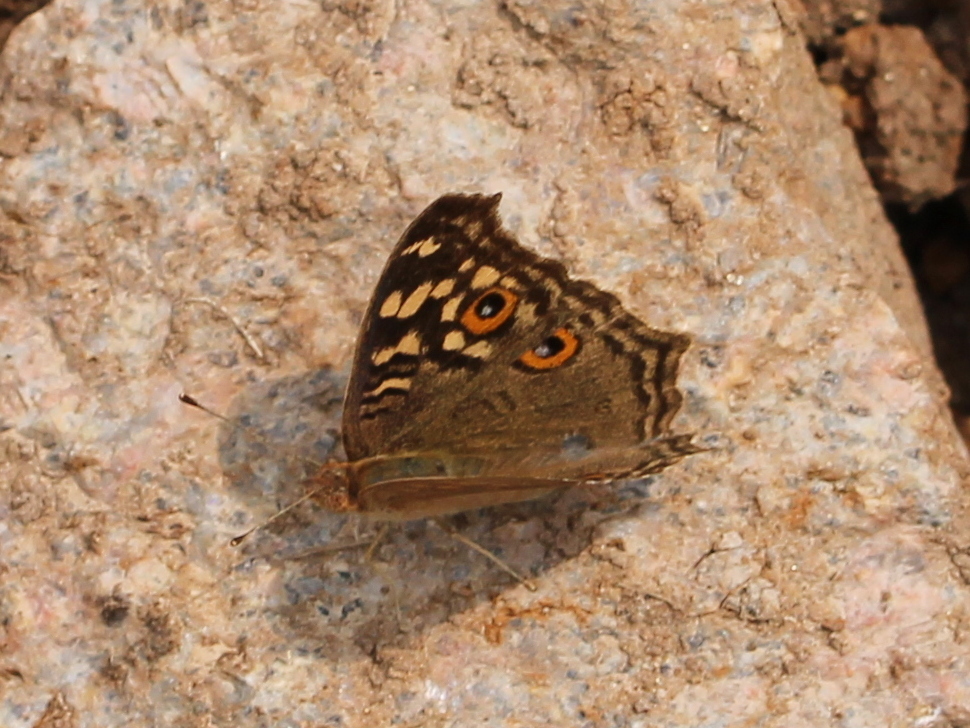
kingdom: Animalia
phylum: Arthropoda
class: Insecta
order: Lepidoptera
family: Nymphalidae
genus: Junonia
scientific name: Junonia lemonias
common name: Lemon pansy
